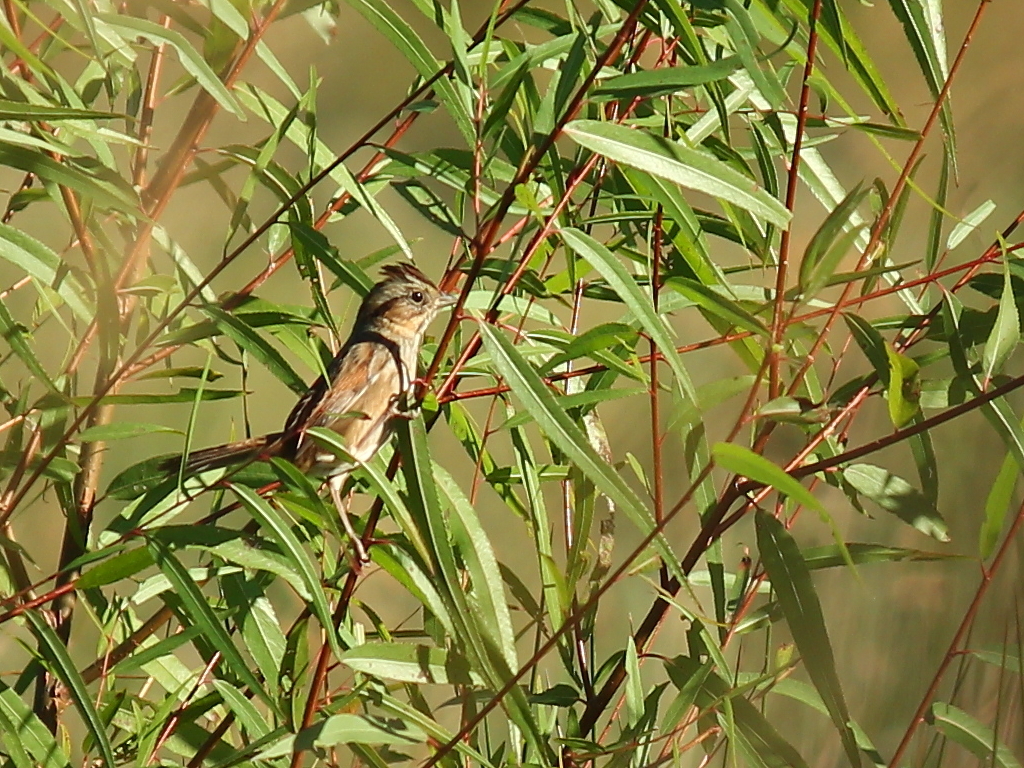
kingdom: Animalia
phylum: Chordata
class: Aves
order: Passeriformes
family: Passerellidae
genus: Melospiza
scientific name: Melospiza georgiana
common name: Swamp sparrow
